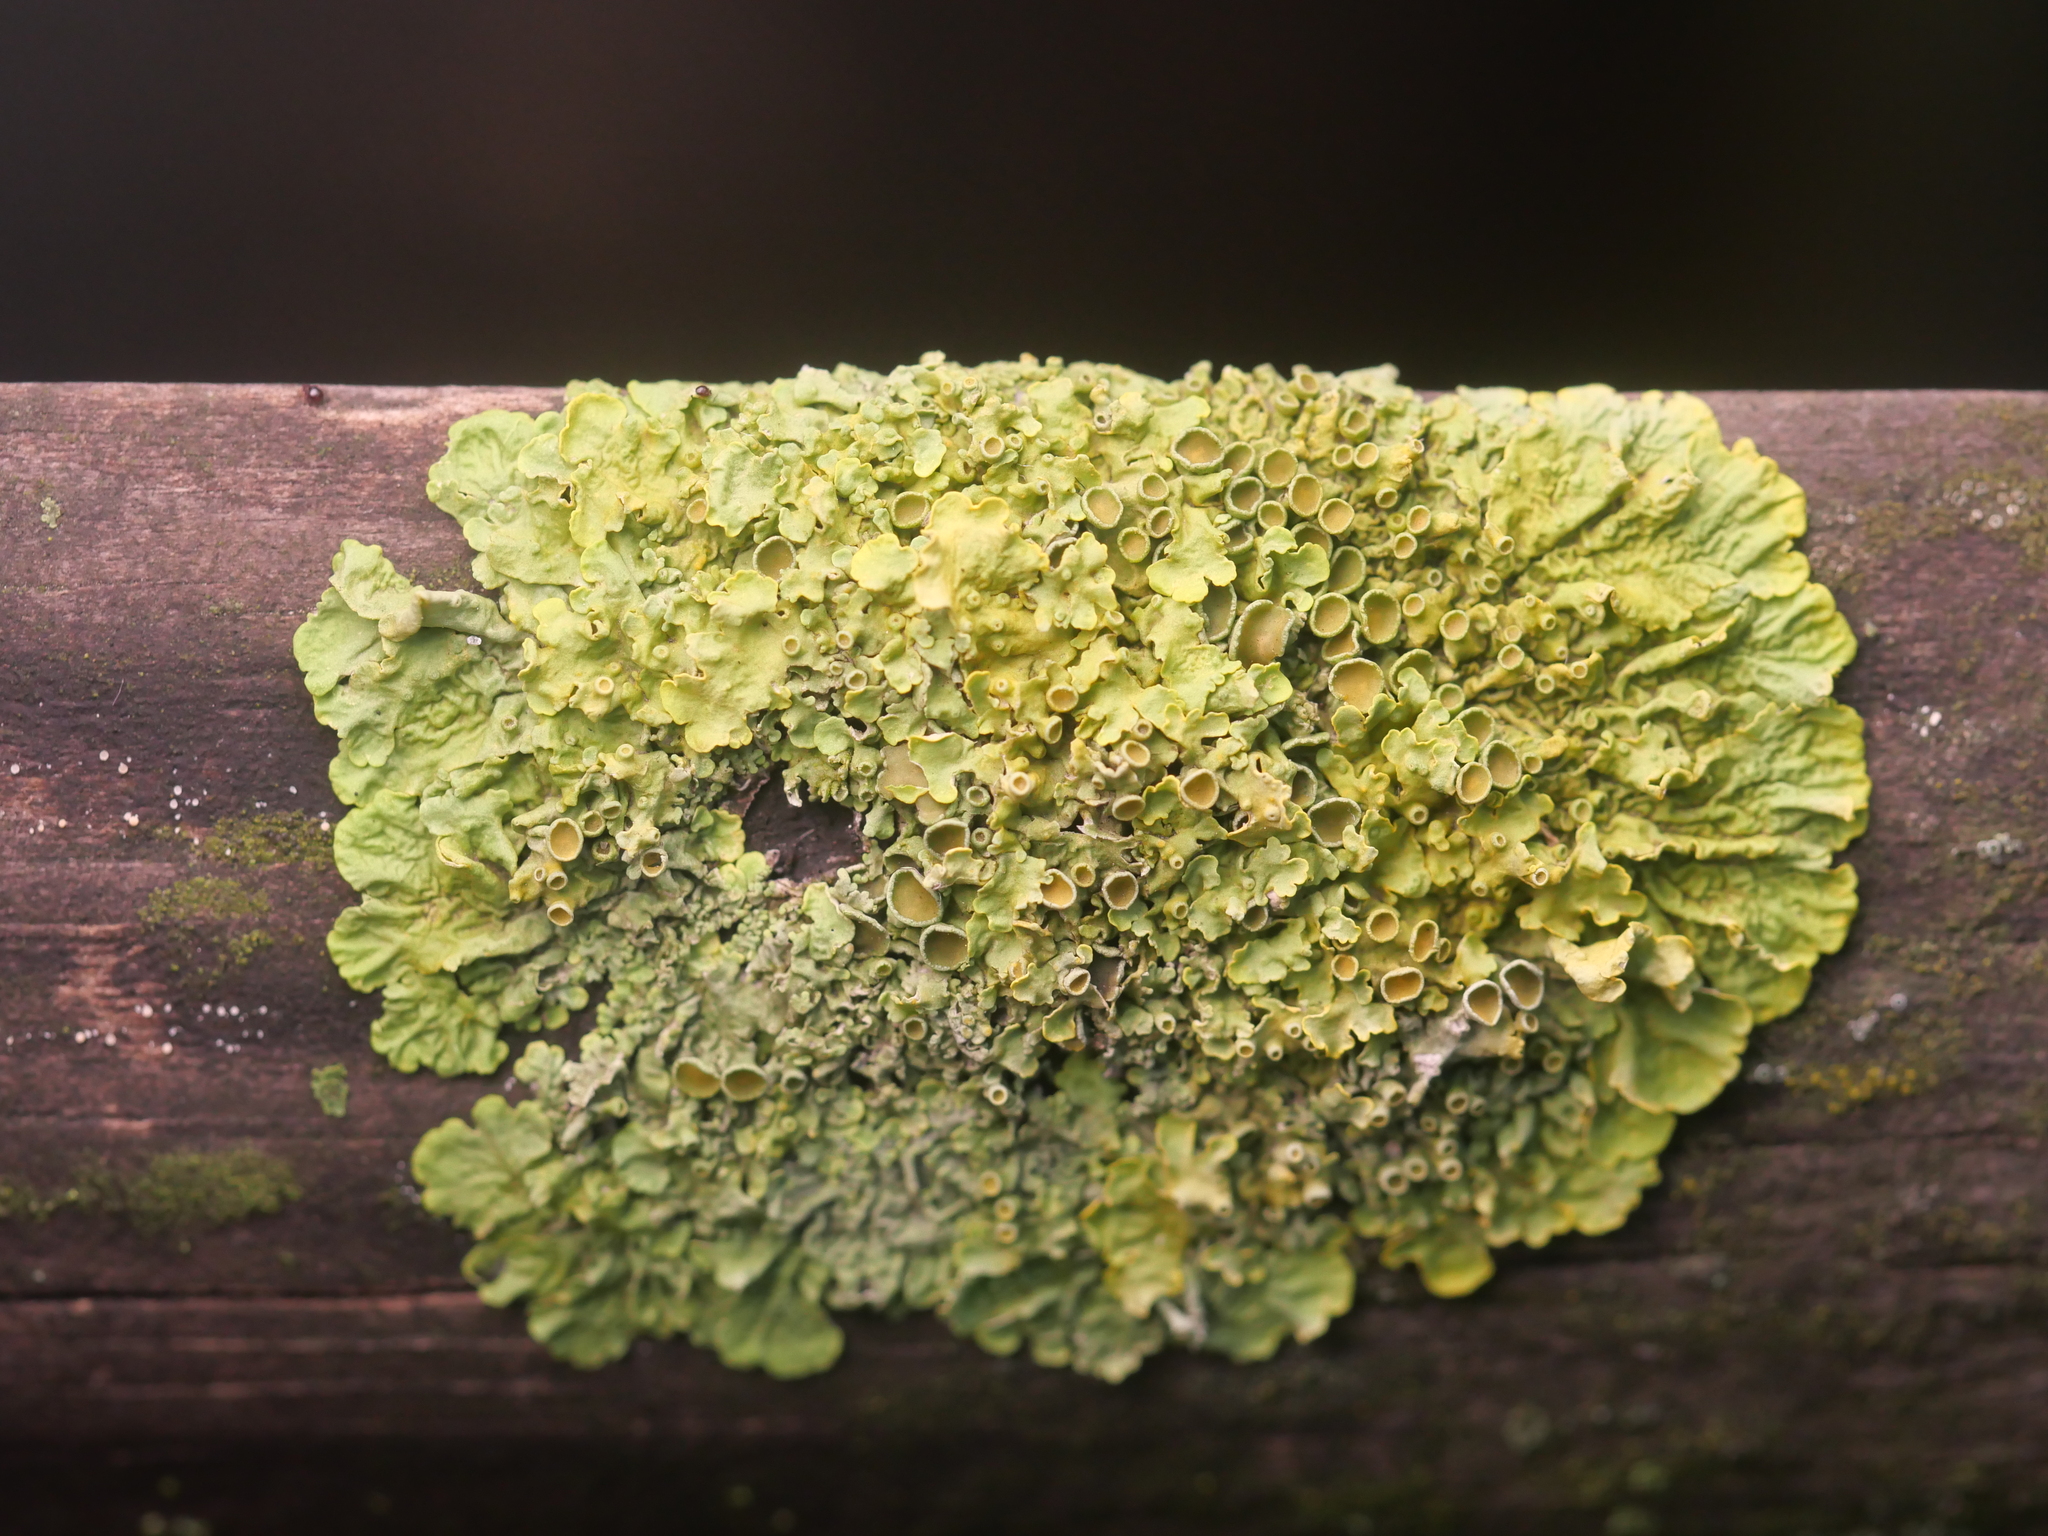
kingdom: Fungi
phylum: Ascomycota
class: Lecanoromycetes
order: Teloschistales
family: Teloschistaceae
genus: Xanthoria
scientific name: Xanthoria parietina
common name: Common orange lichen
